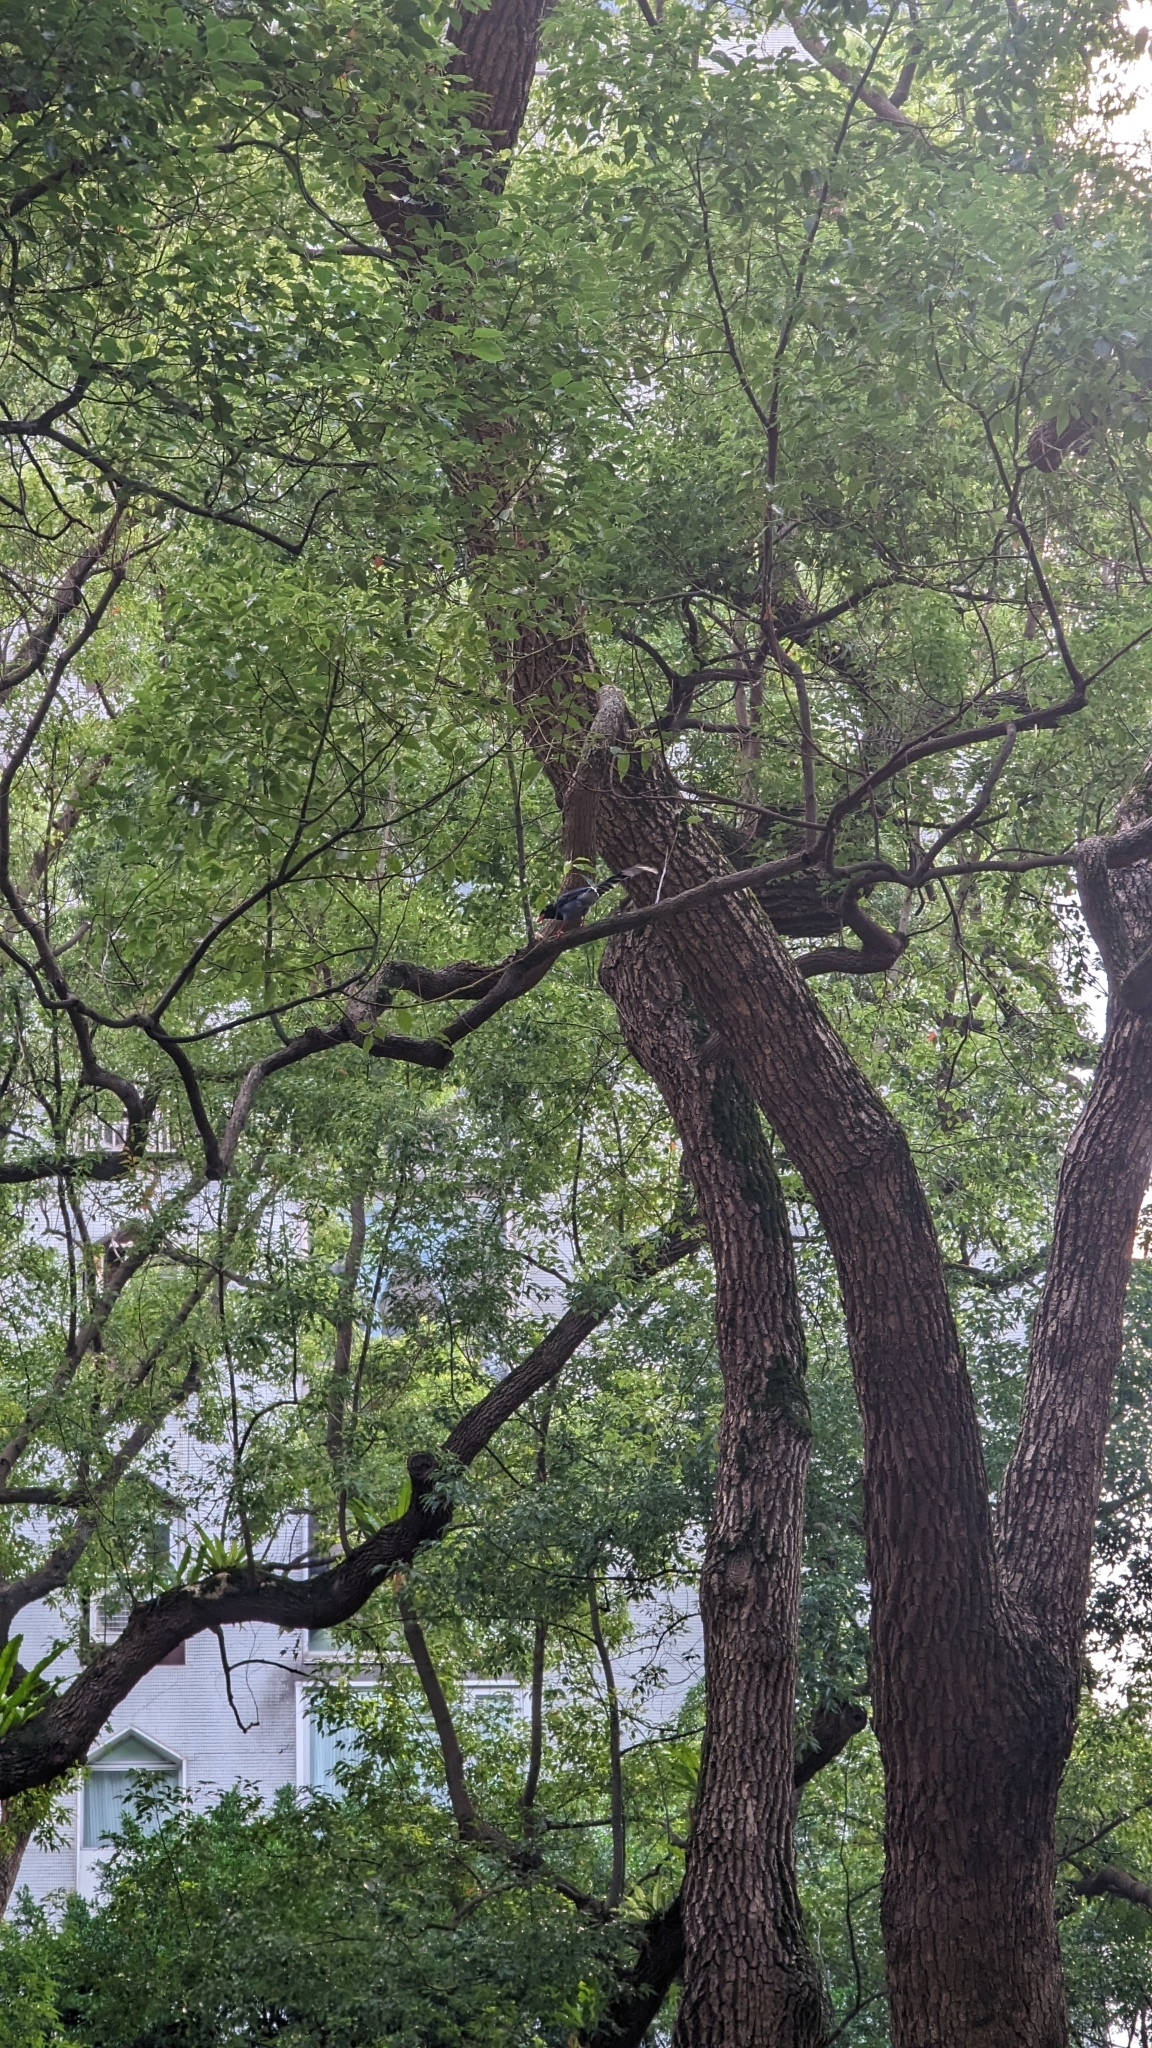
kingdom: Animalia
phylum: Chordata
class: Aves
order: Passeriformes
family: Corvidae
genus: Urocissa
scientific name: Urocissa caerulea
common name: Taiwan blue magpie
